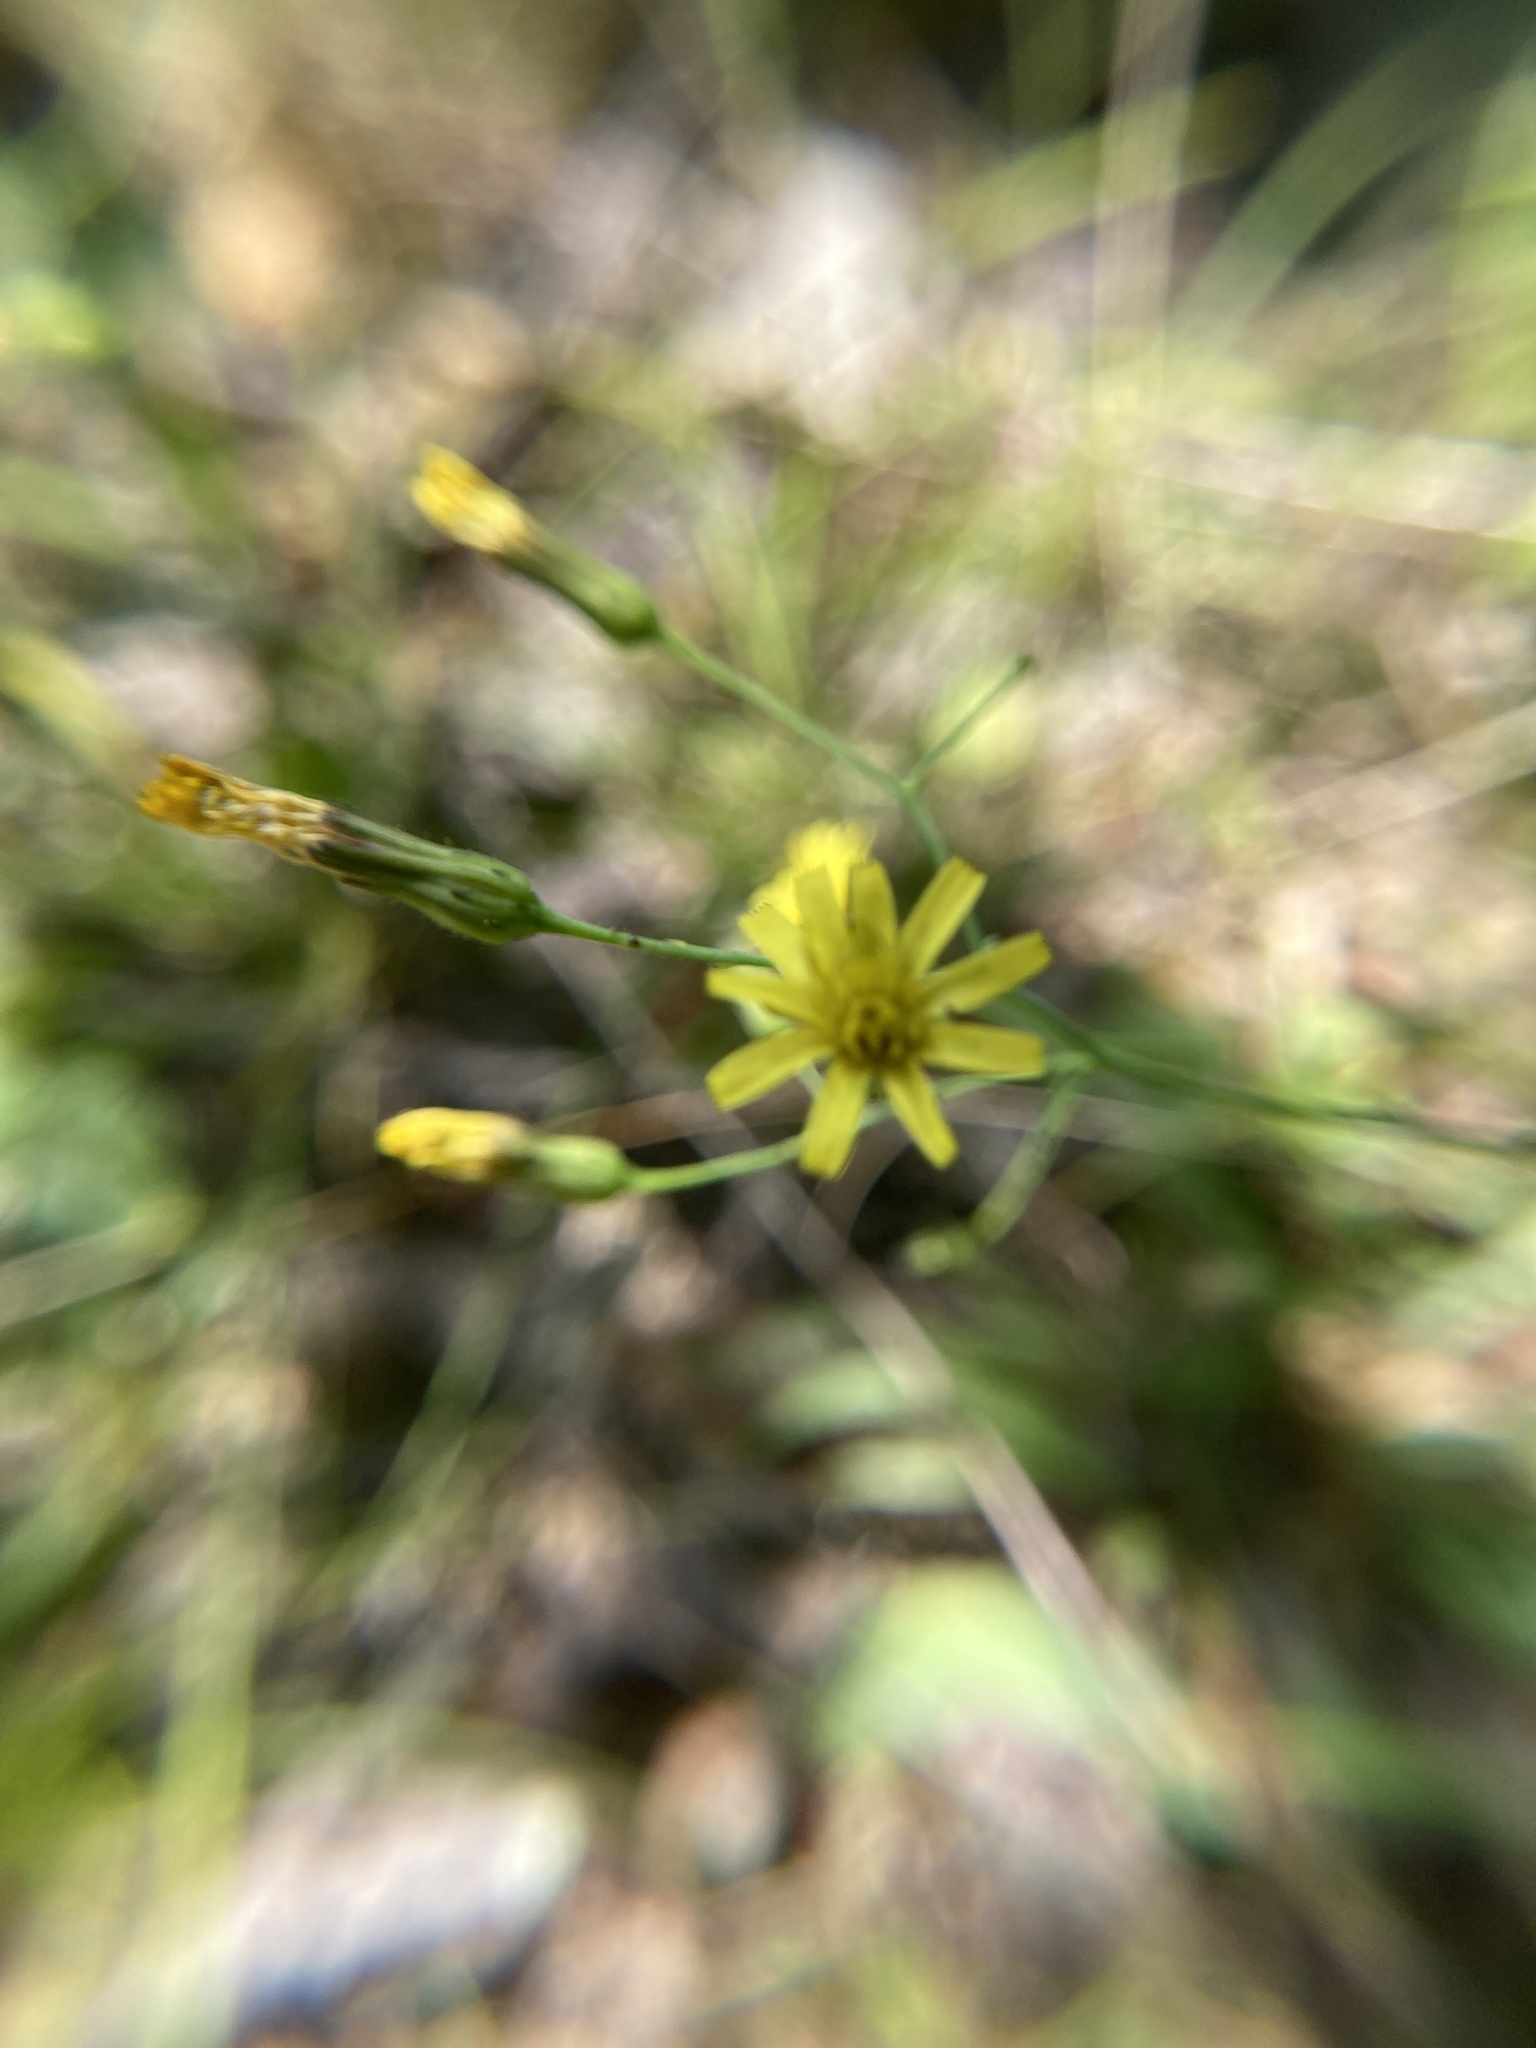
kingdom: Plantae
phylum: Tracheophyta
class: Magnoliopsida
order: Asterales
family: Asteraceae
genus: Hieracium
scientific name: Hieracium paniculatum
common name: Allegheny hawkweed
